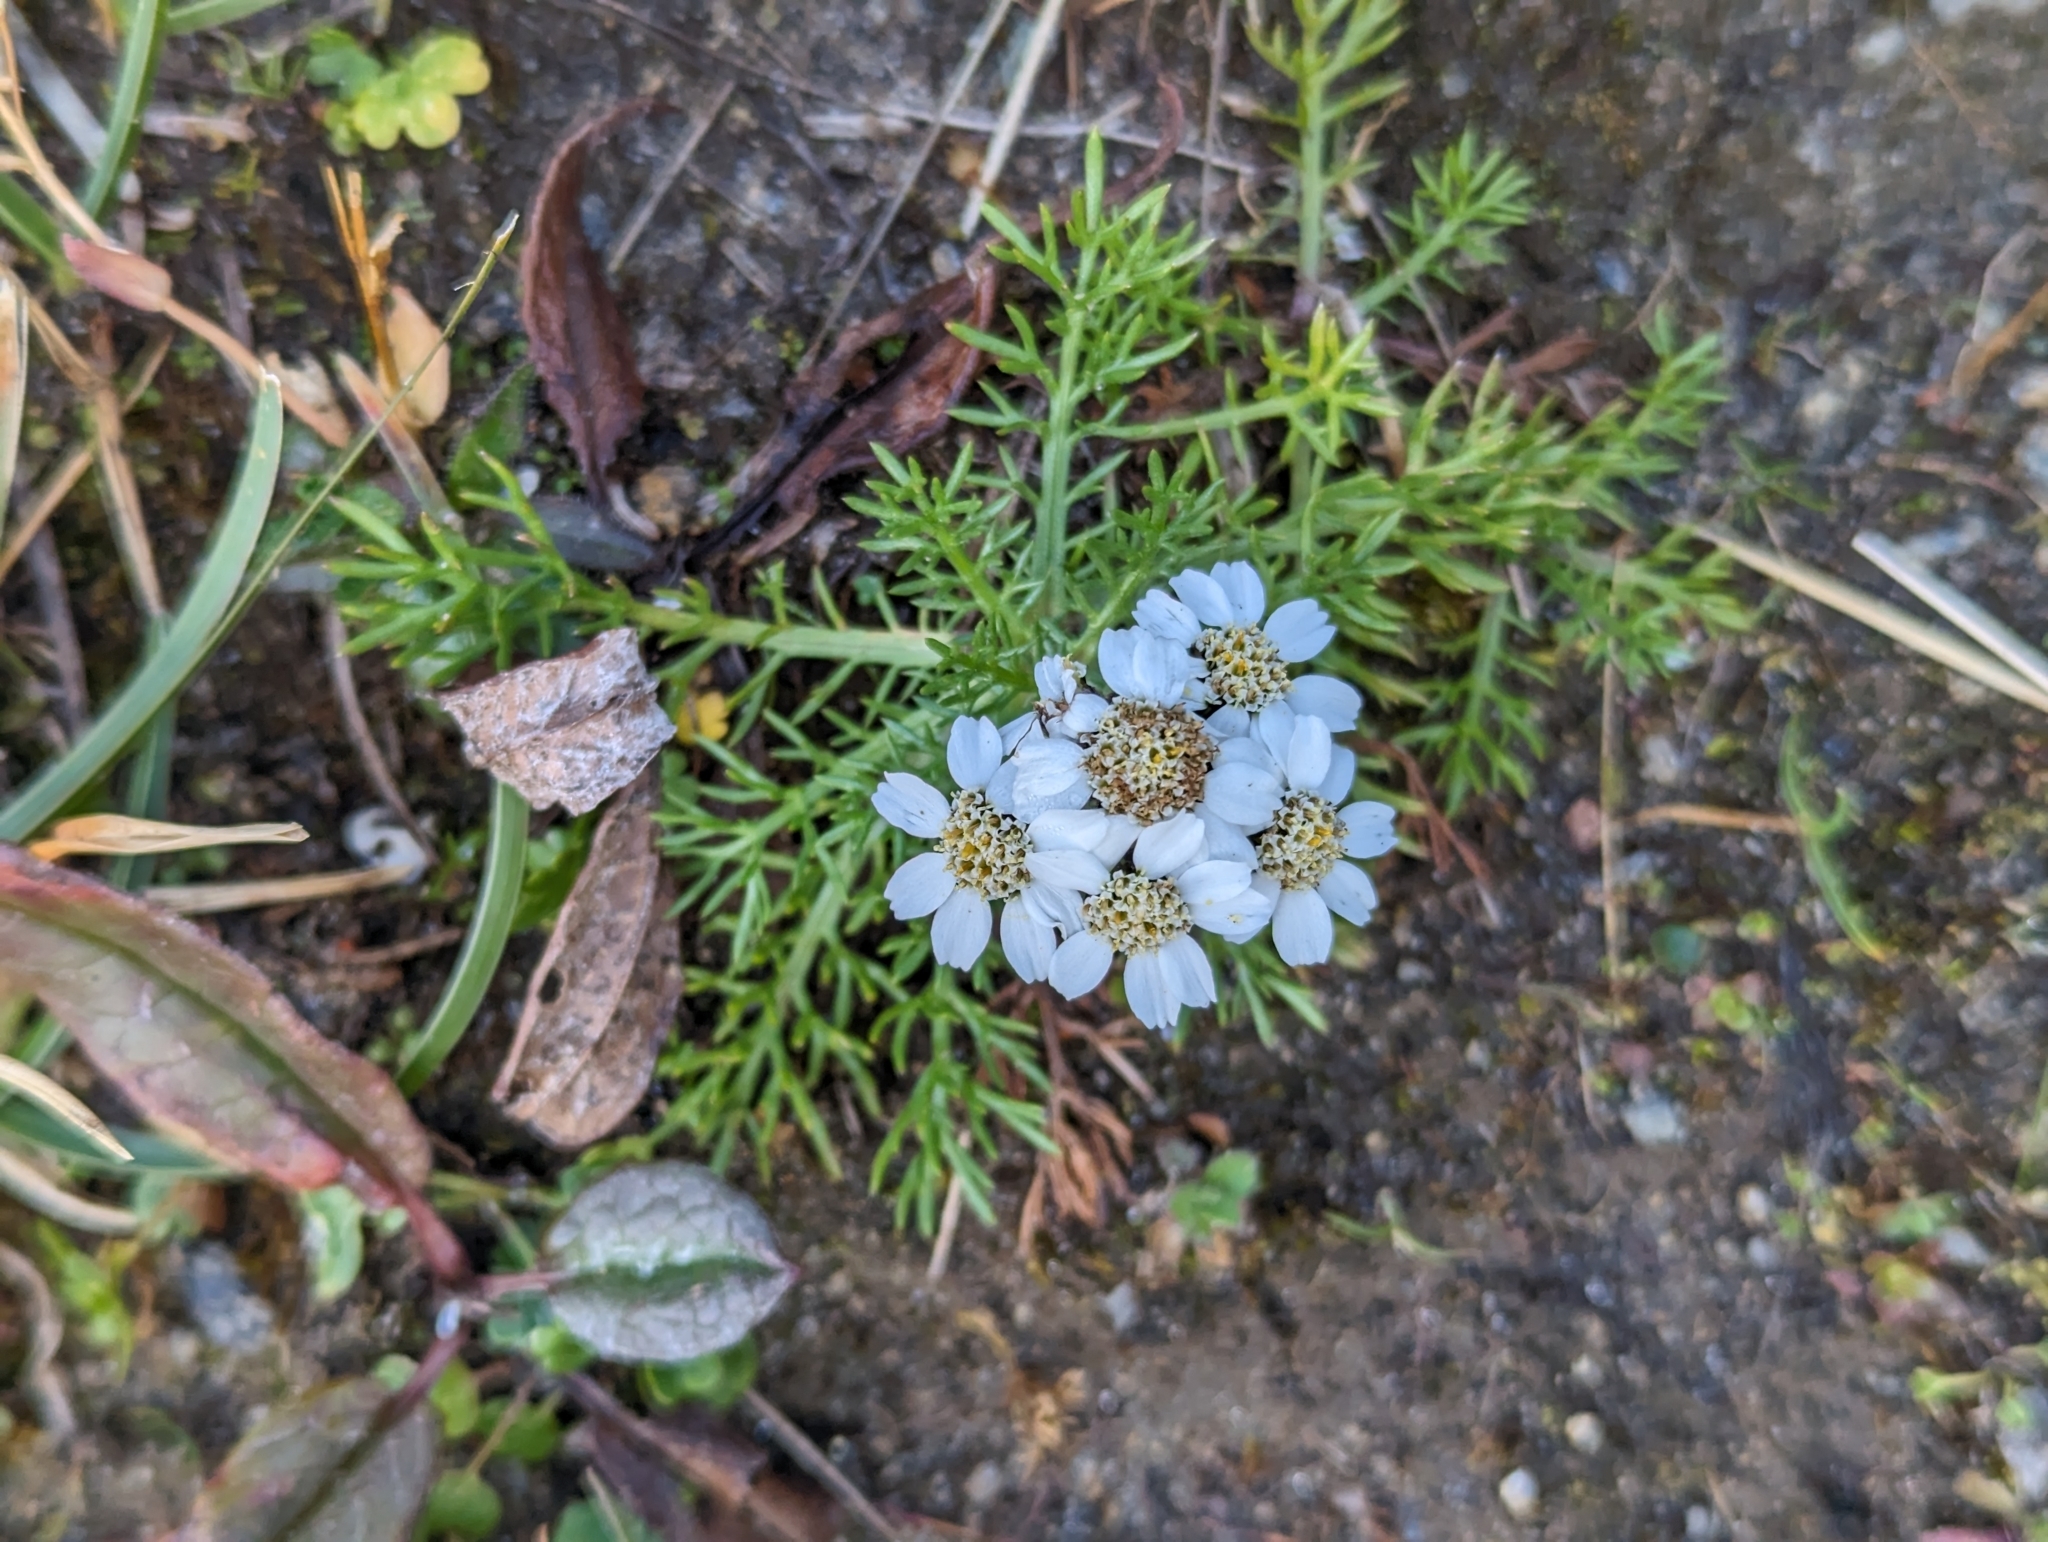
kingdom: Plantae
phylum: Tracheophyta
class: Magnoliopsida
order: Asterales
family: Asteraceae
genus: Achillea
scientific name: Achillea atrata
